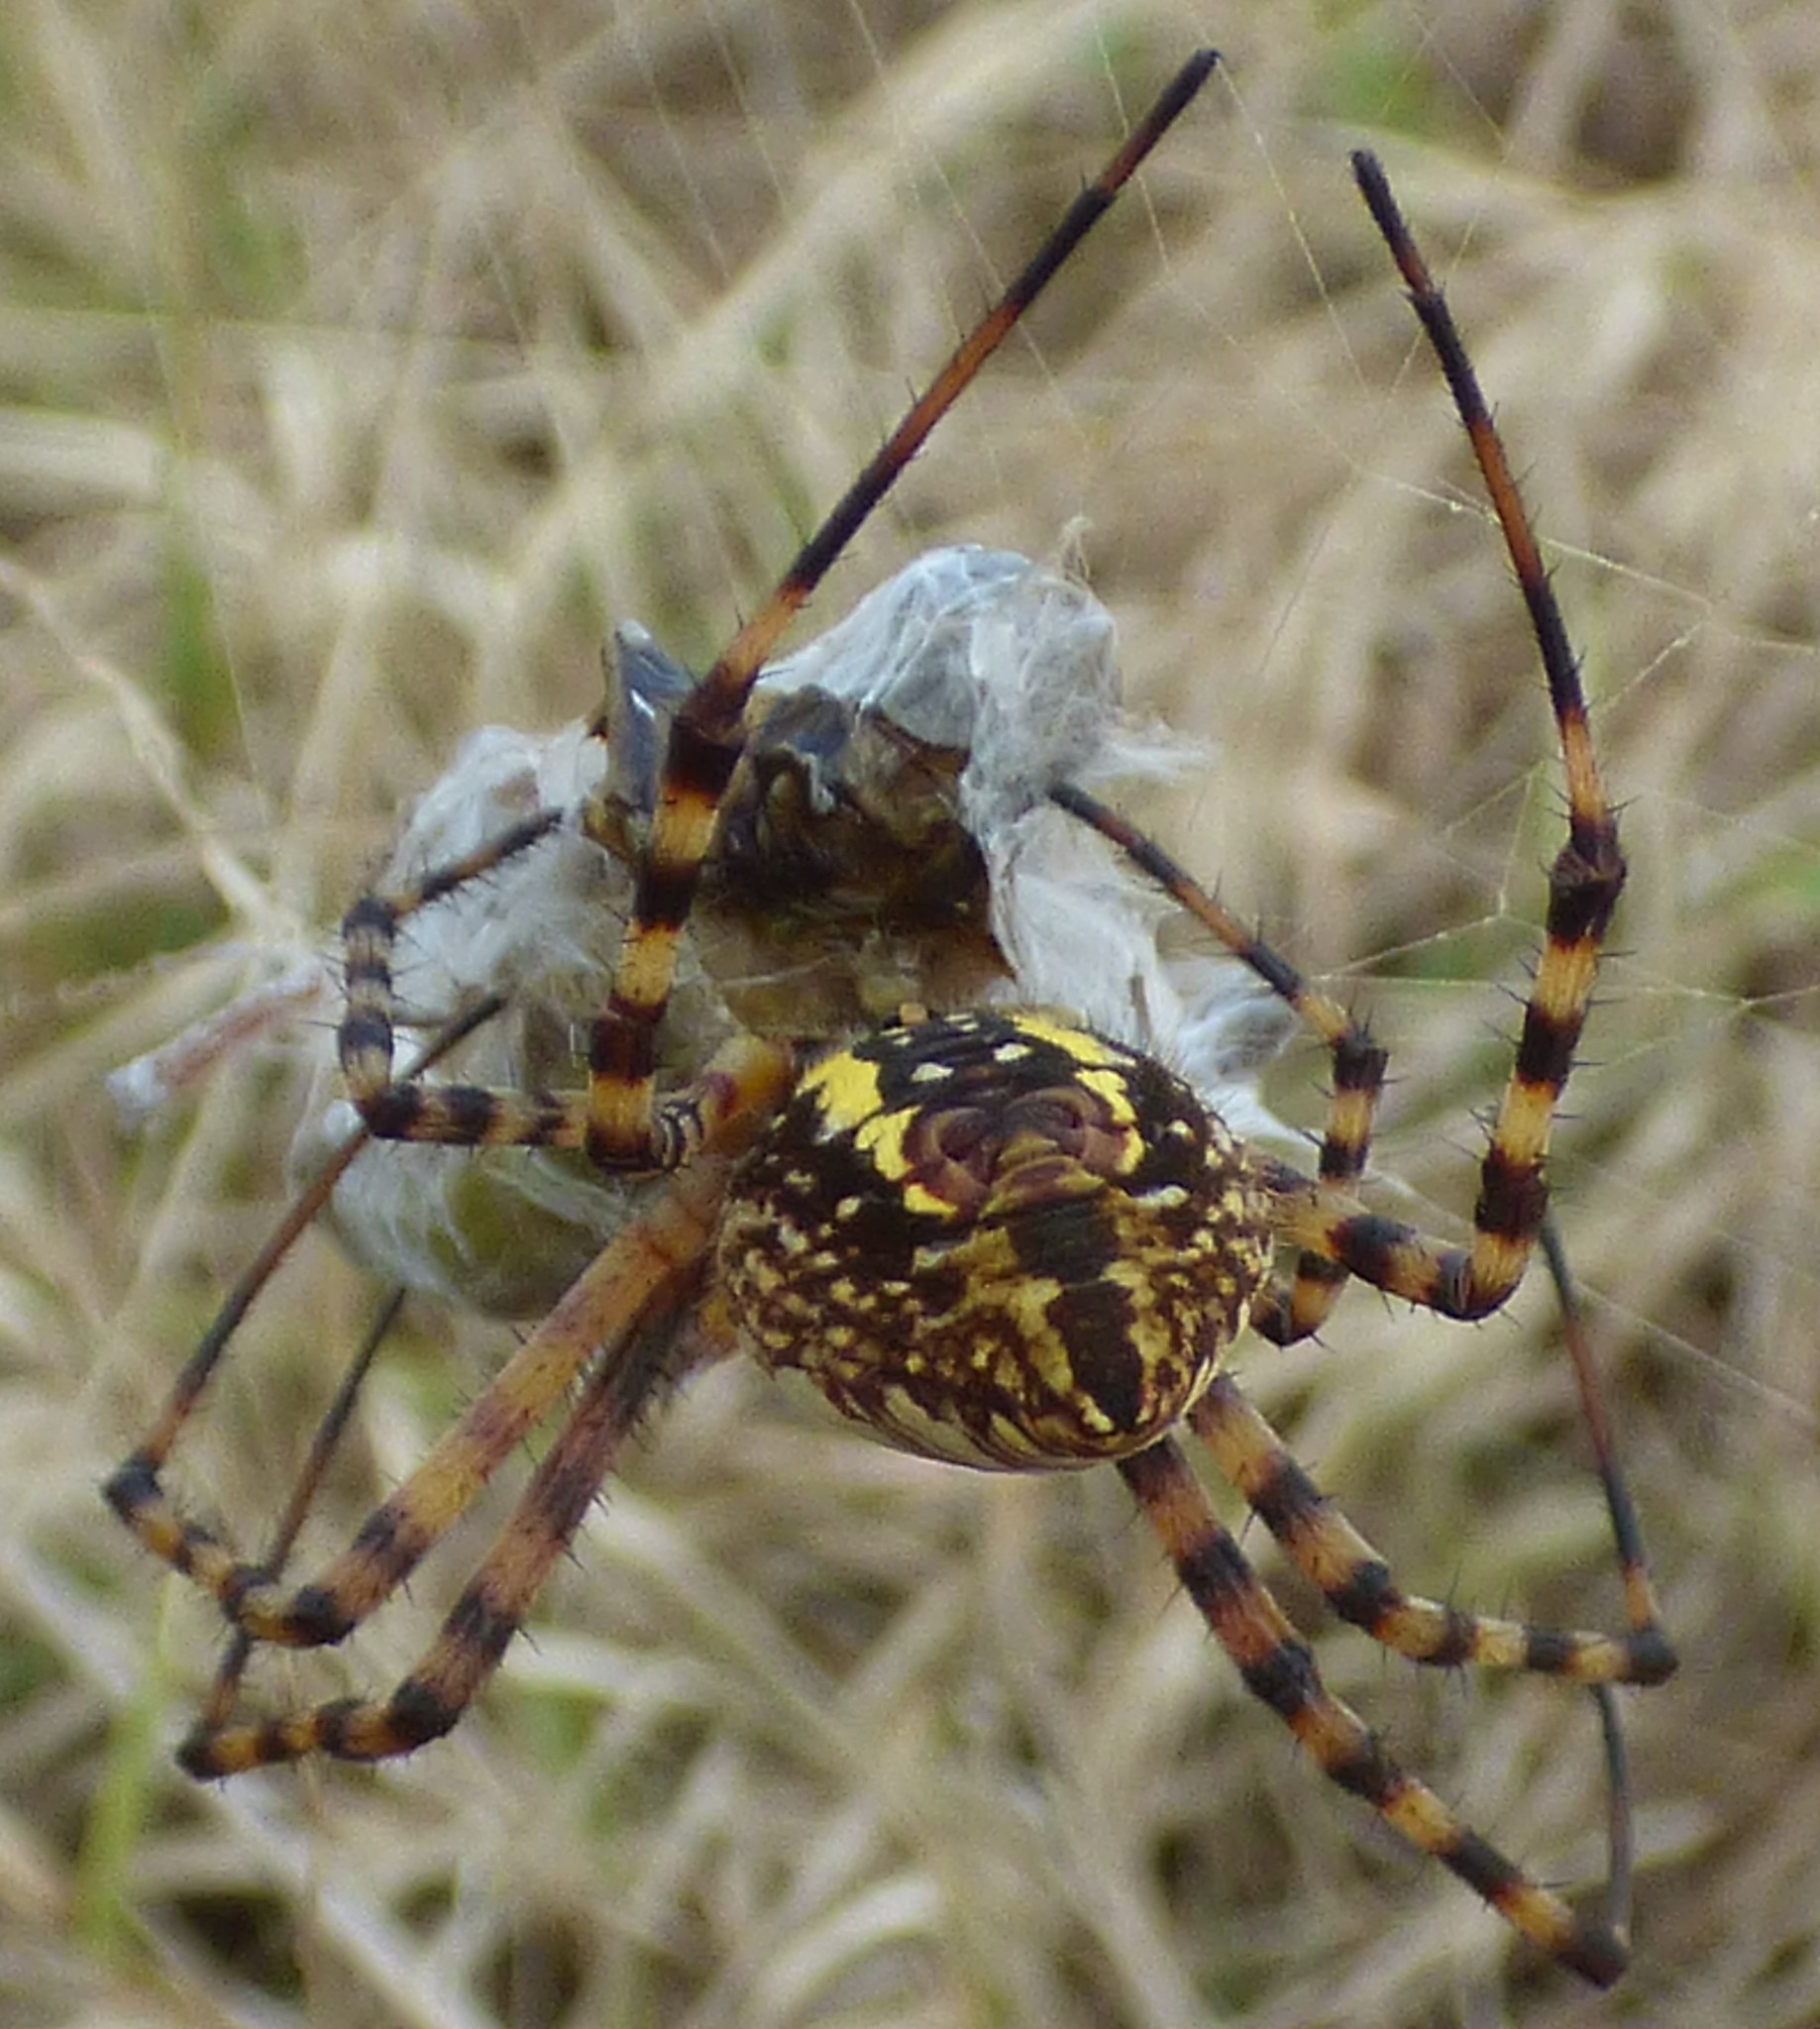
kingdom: Animalia
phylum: Arthropoda
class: Arachnida
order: Araneae
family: Araneidae
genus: Argiope
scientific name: Argiope trifasciata
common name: Banded garden spider
